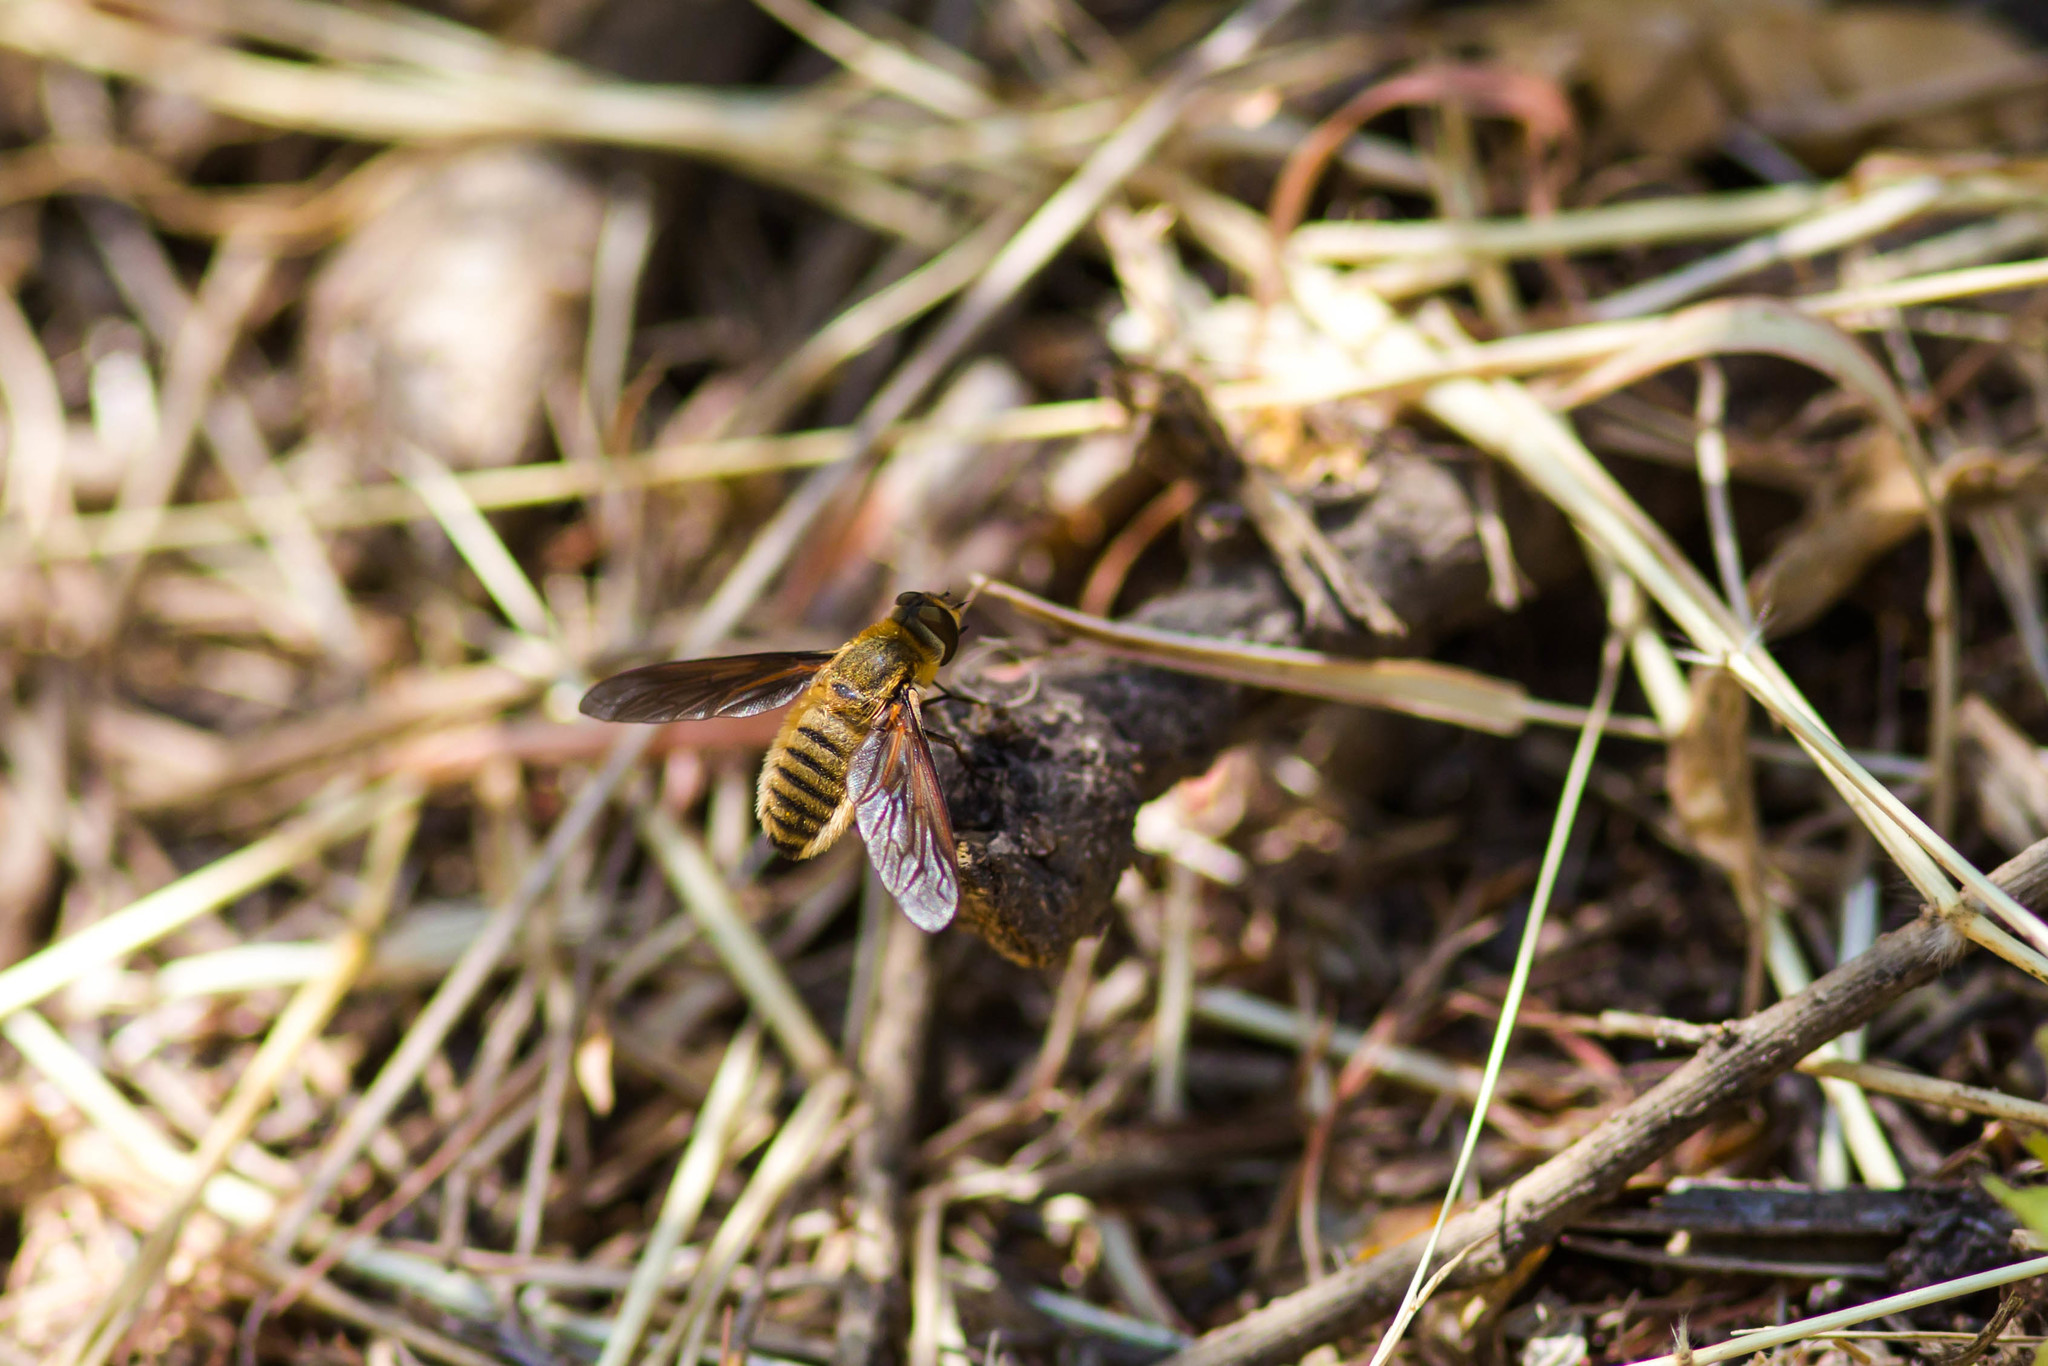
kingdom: Animalia
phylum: Arthropoda
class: Insecta
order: Diptera
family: Bombyliidae
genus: Poecilanthrax
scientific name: Poecilanthrax lucifer
